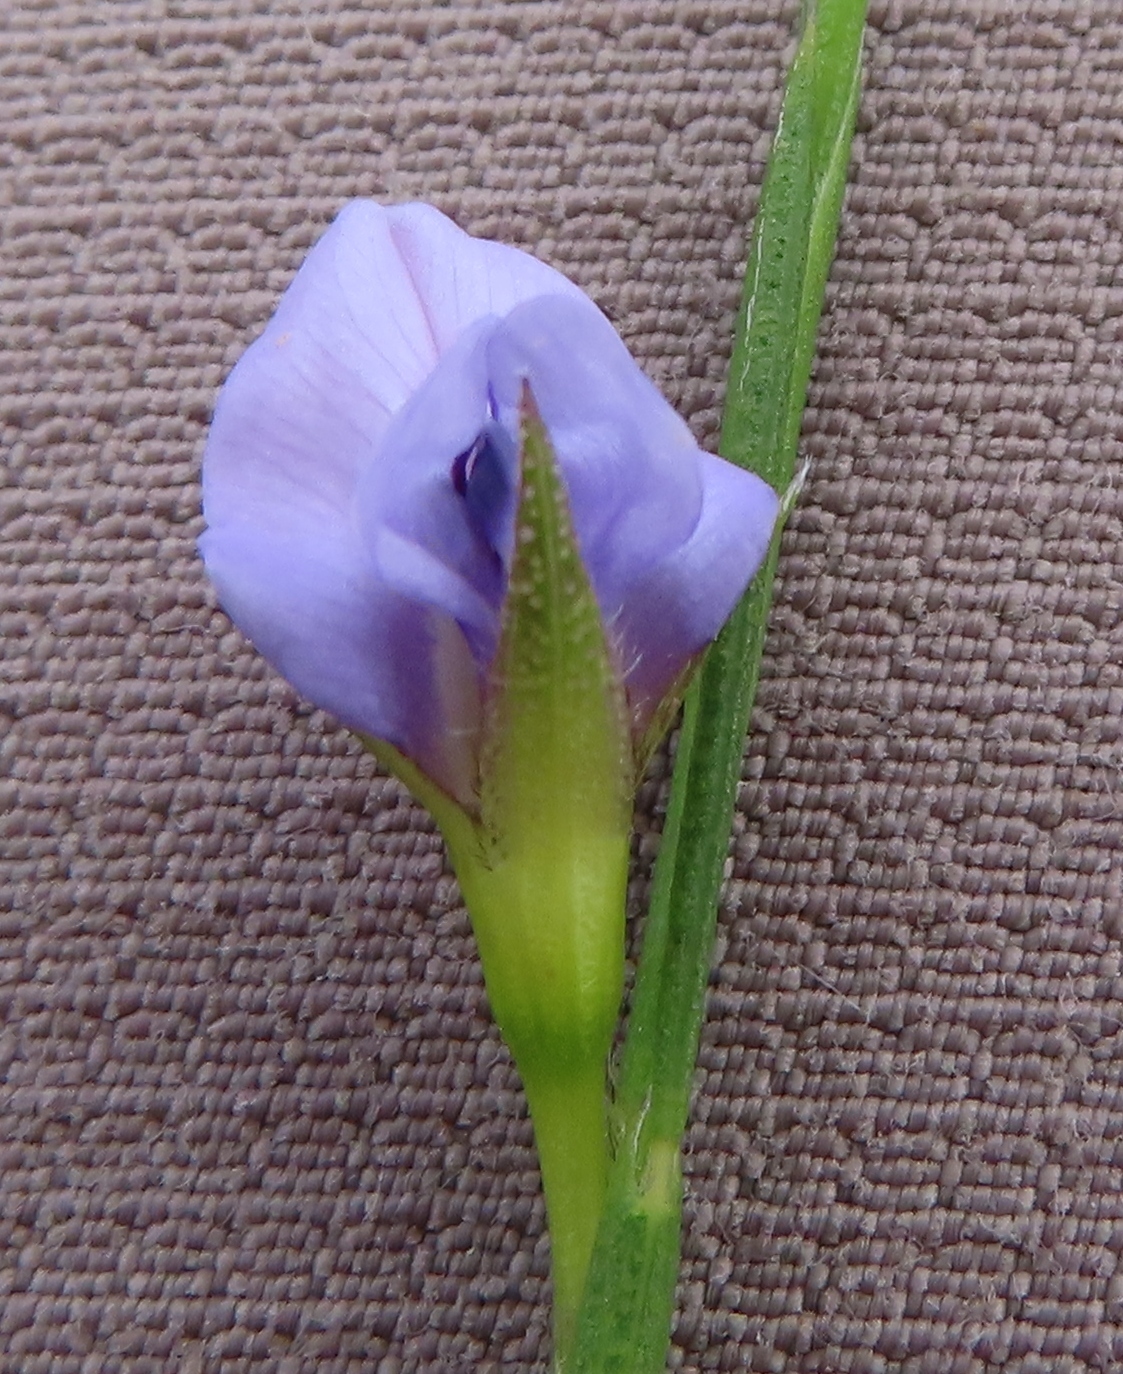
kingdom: Plantae
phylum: Tracheophyta
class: Magnoliopsida
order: Fabales
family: Fabaceae
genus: Psoralea
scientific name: Psoralea restioides
